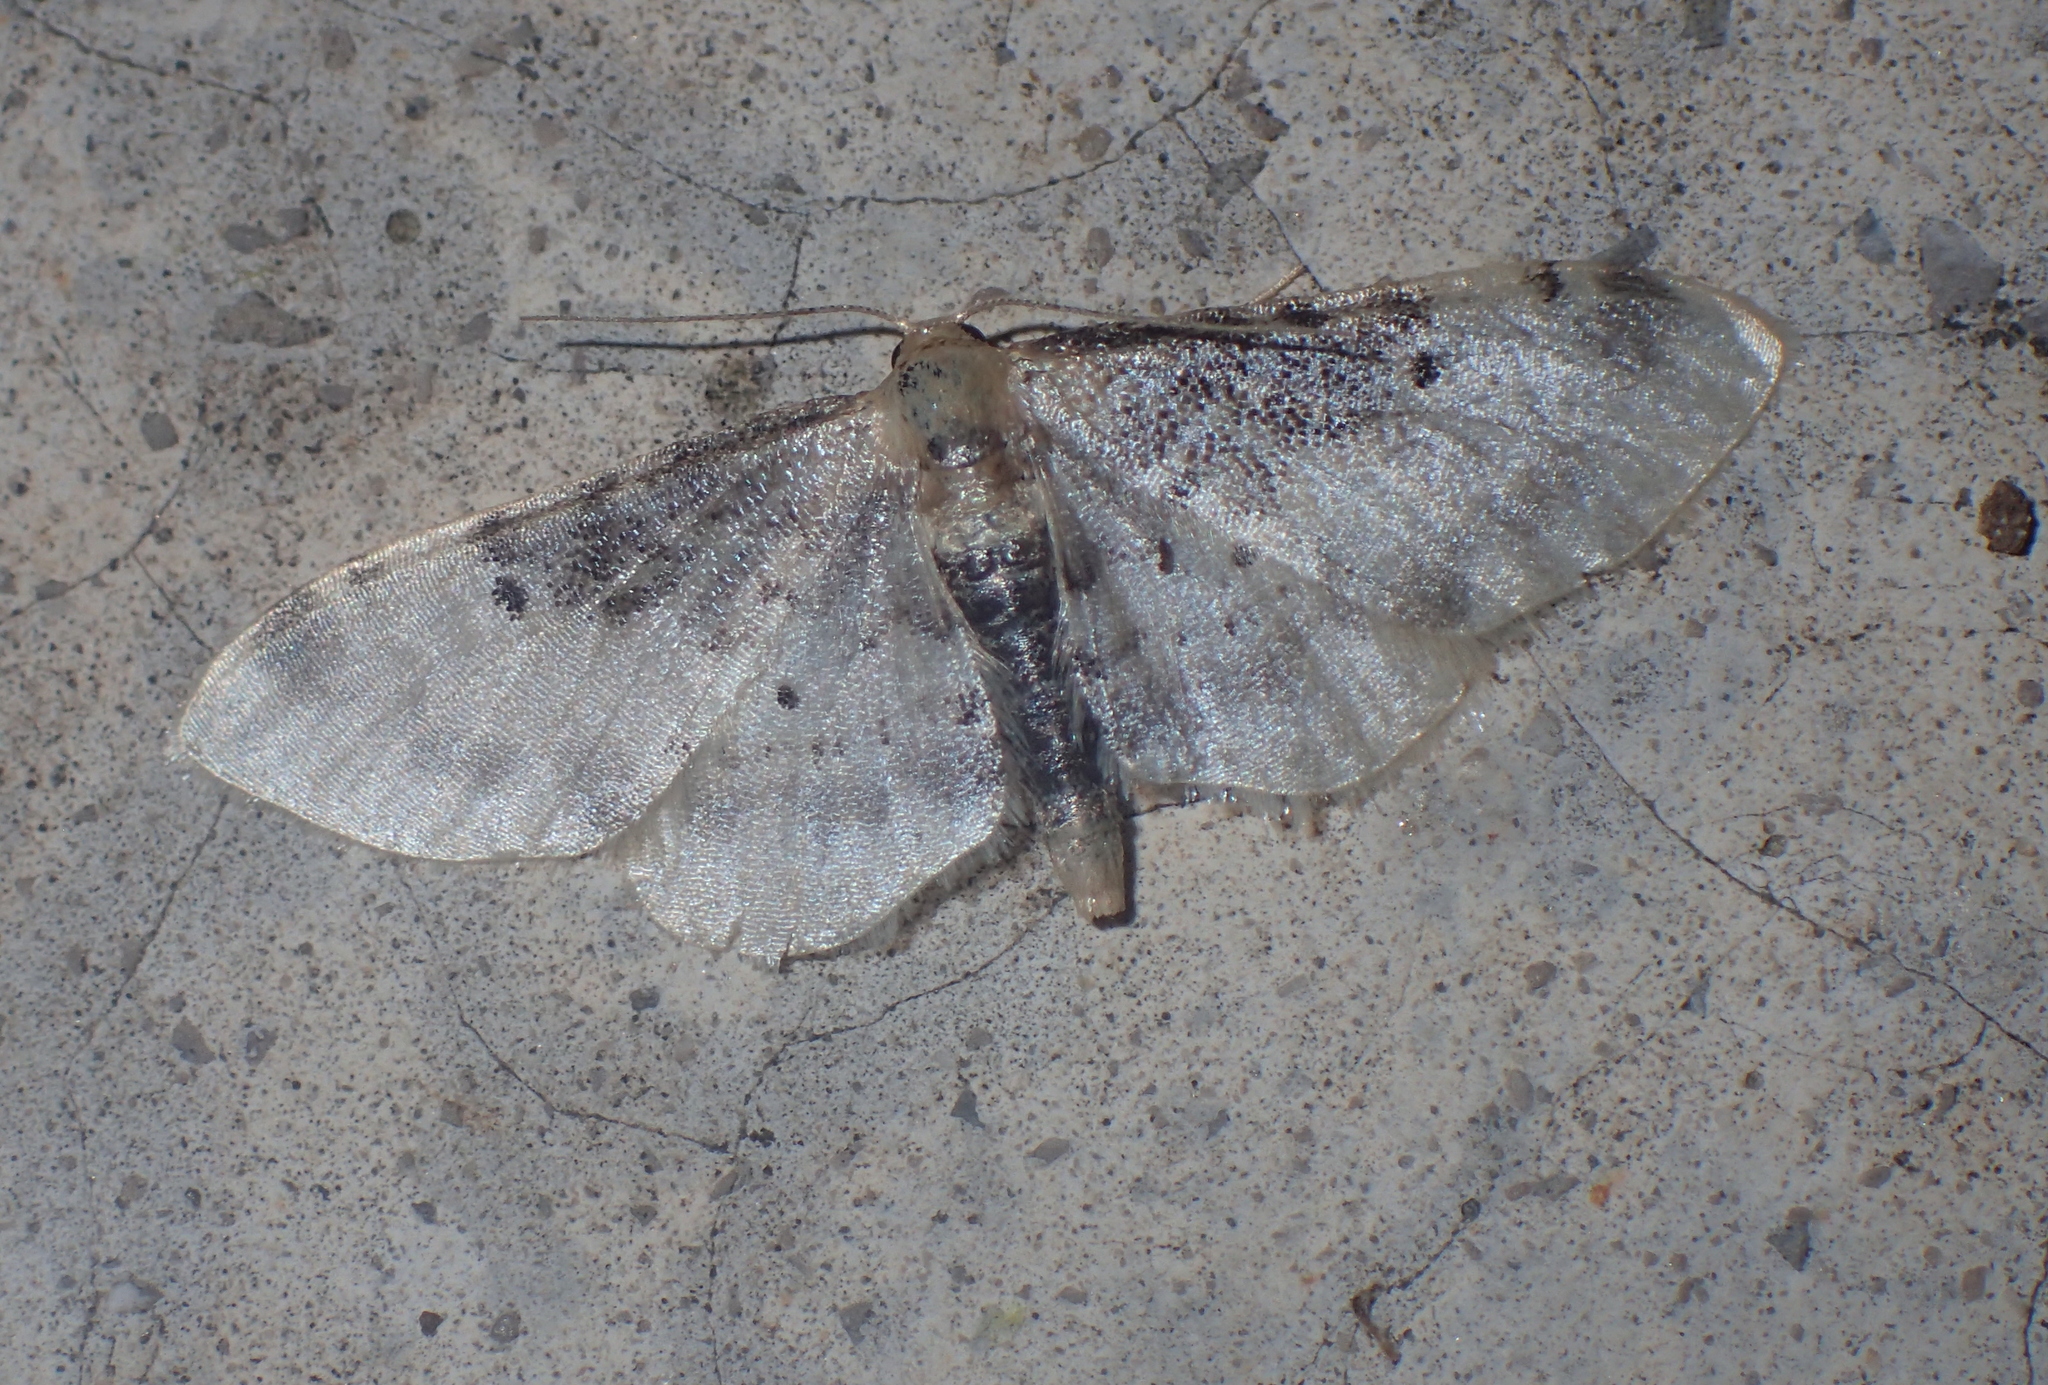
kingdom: Animalia
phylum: Arthropoda
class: Insecta
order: Lepidoptera
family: Geometridae
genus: Idaea
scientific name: Idaea filicata
